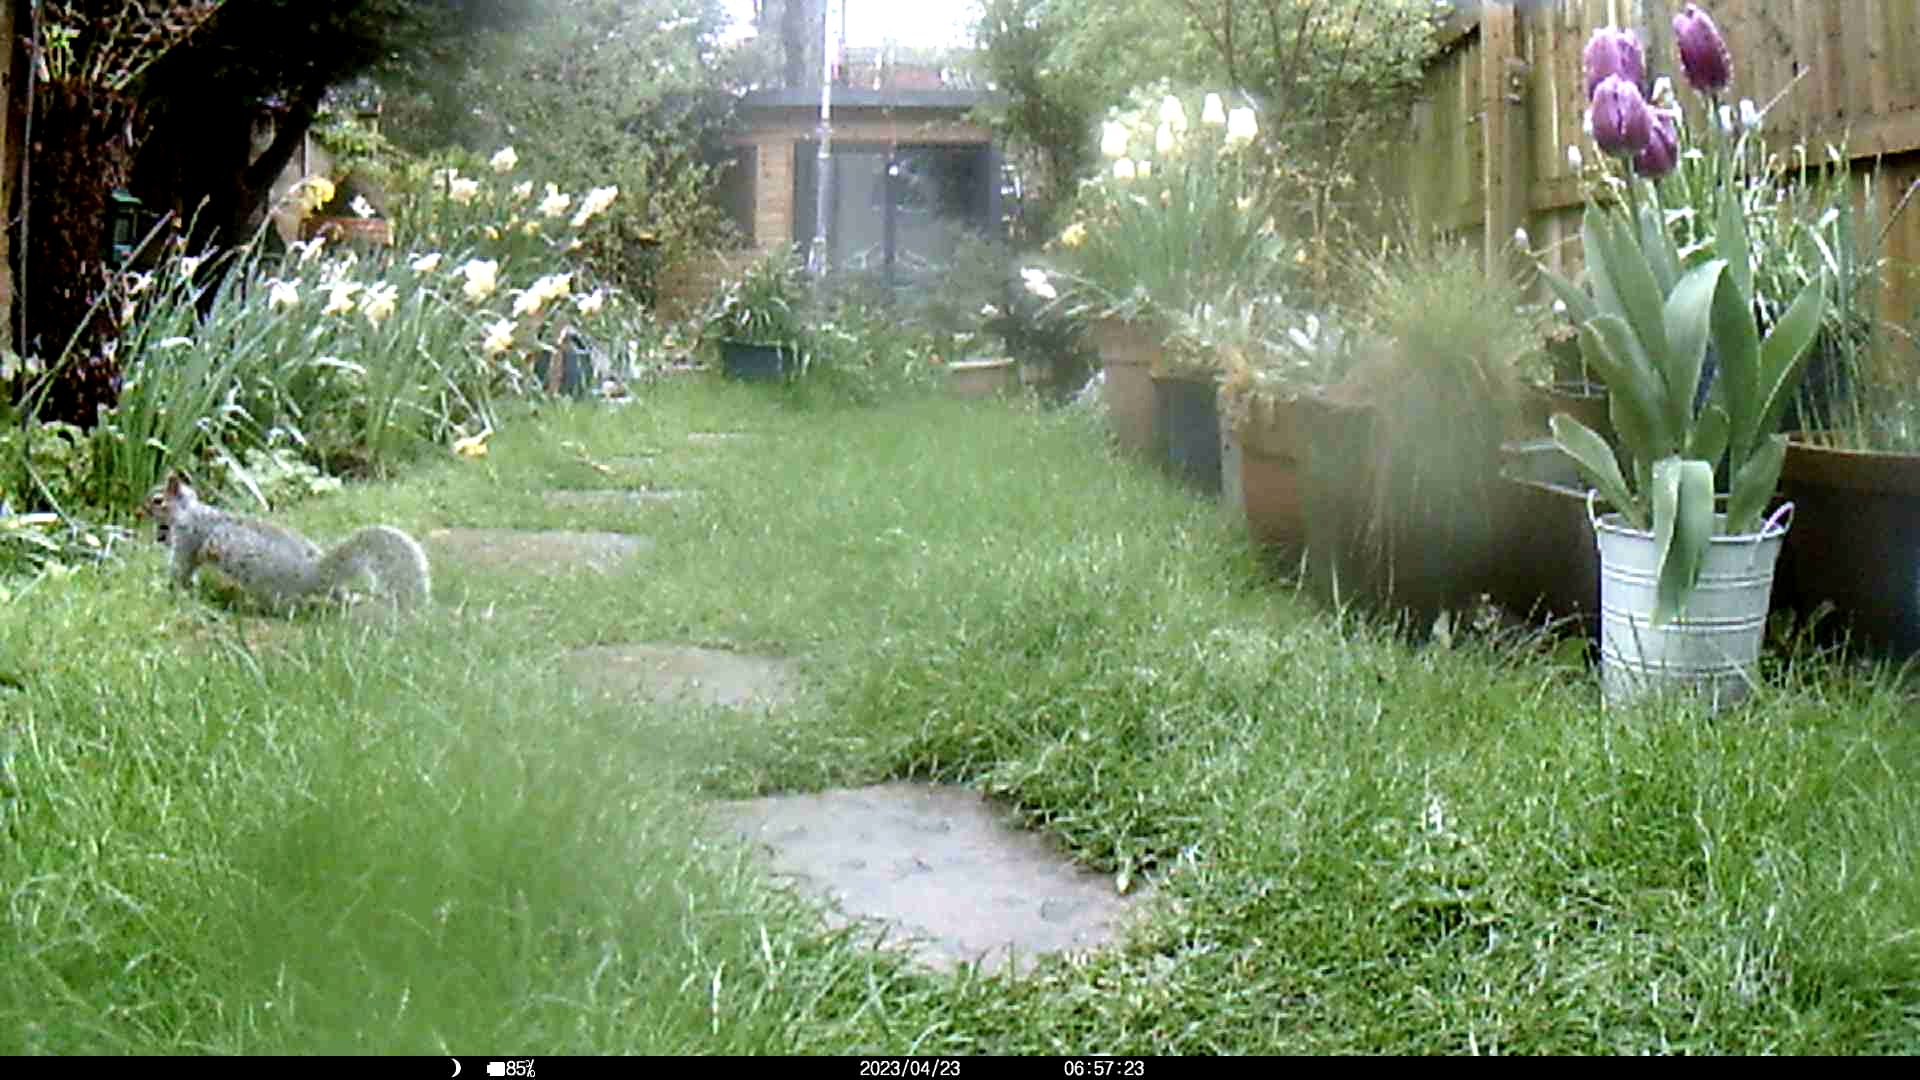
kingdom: Animalia
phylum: Chordata
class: Mammalia
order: Rodentia
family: Sciuridae
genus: Sciurus
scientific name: Sciurus carolinensis
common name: Eastern gray squirrel
